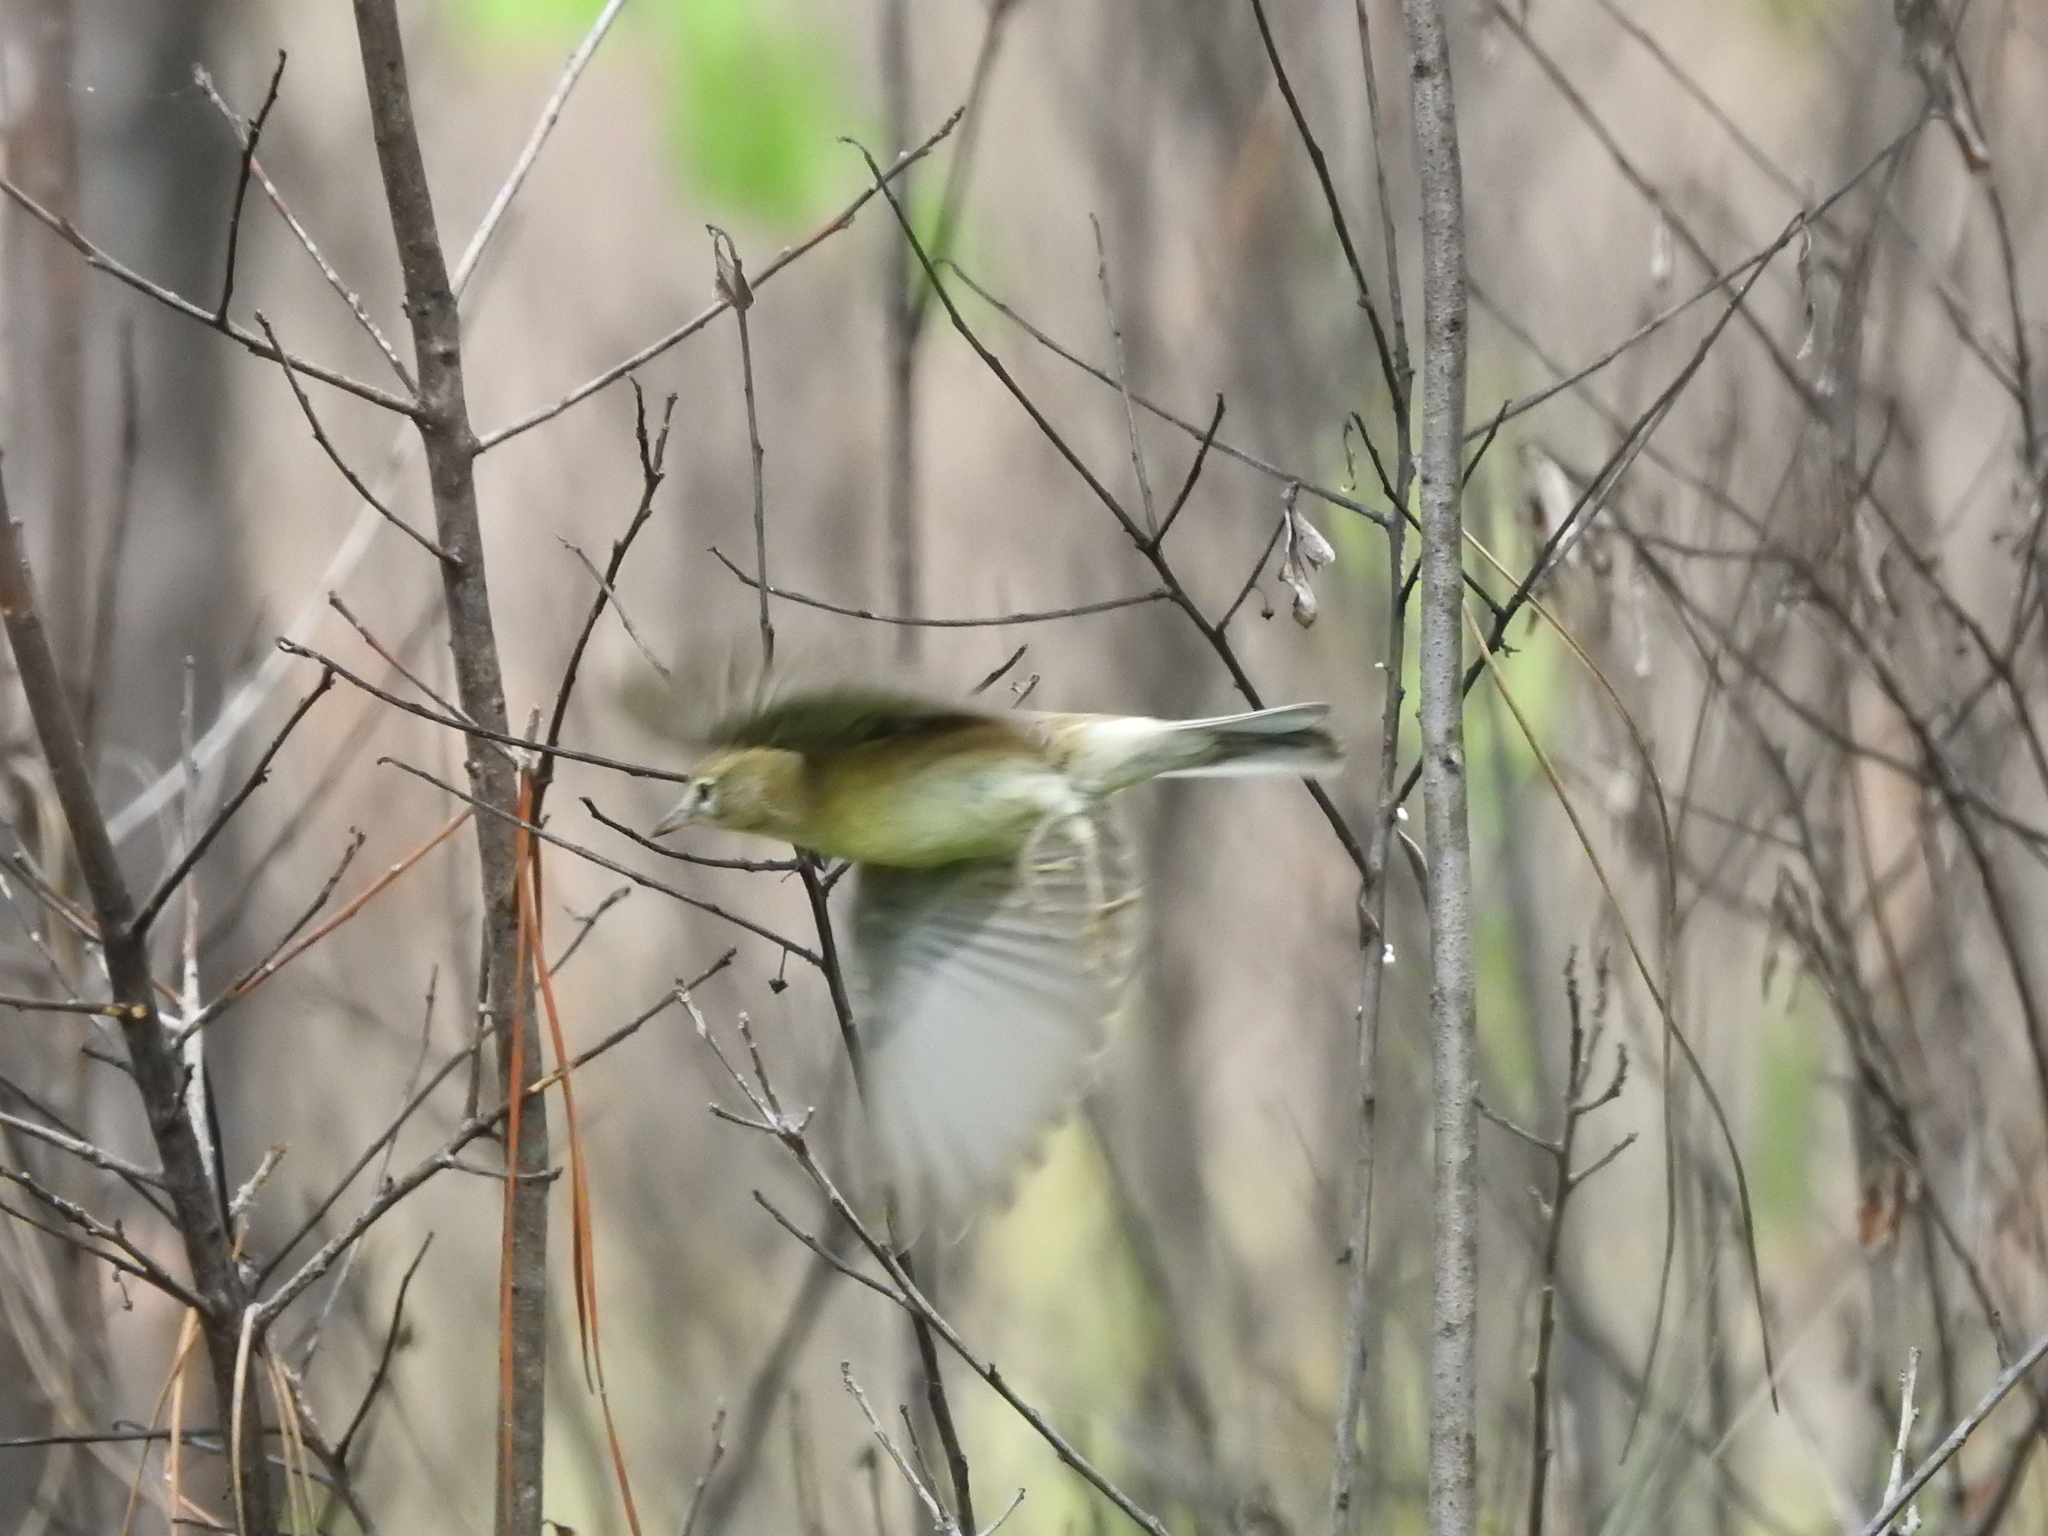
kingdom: Animalia
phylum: Chordata
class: Aves
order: Passeriformes
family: Parulidae
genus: Setophaga
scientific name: Setophaga pinus
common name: Pine warbler
